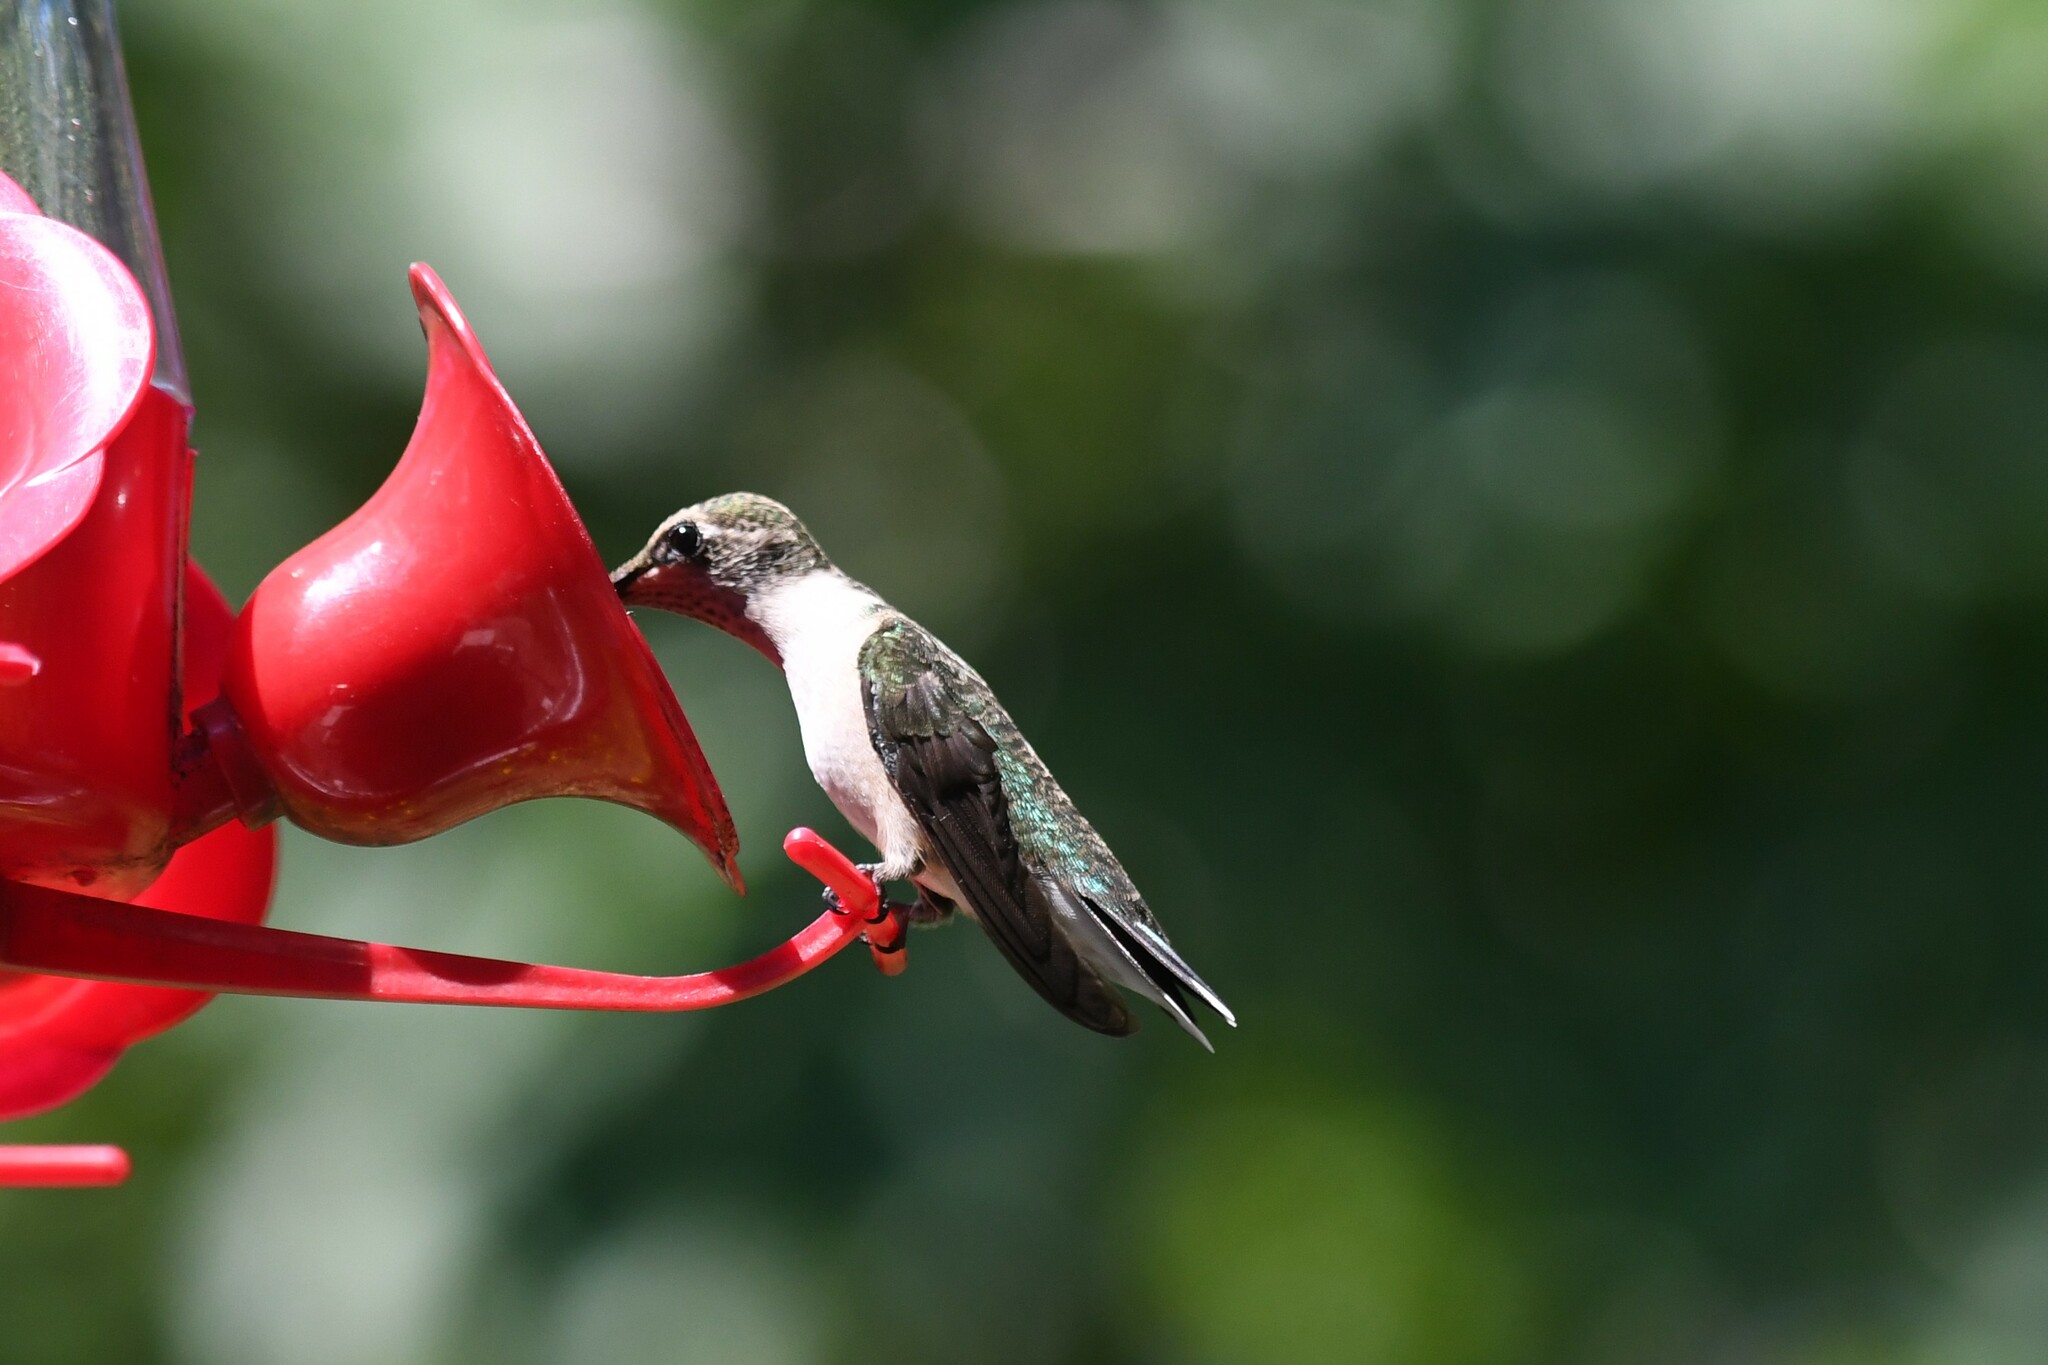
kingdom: Animalia
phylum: Chordata
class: Aves
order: Apodiformes
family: Trochilidae
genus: Archilochus
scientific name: Archilochus colubris
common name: Ruby-throated hummingbird
